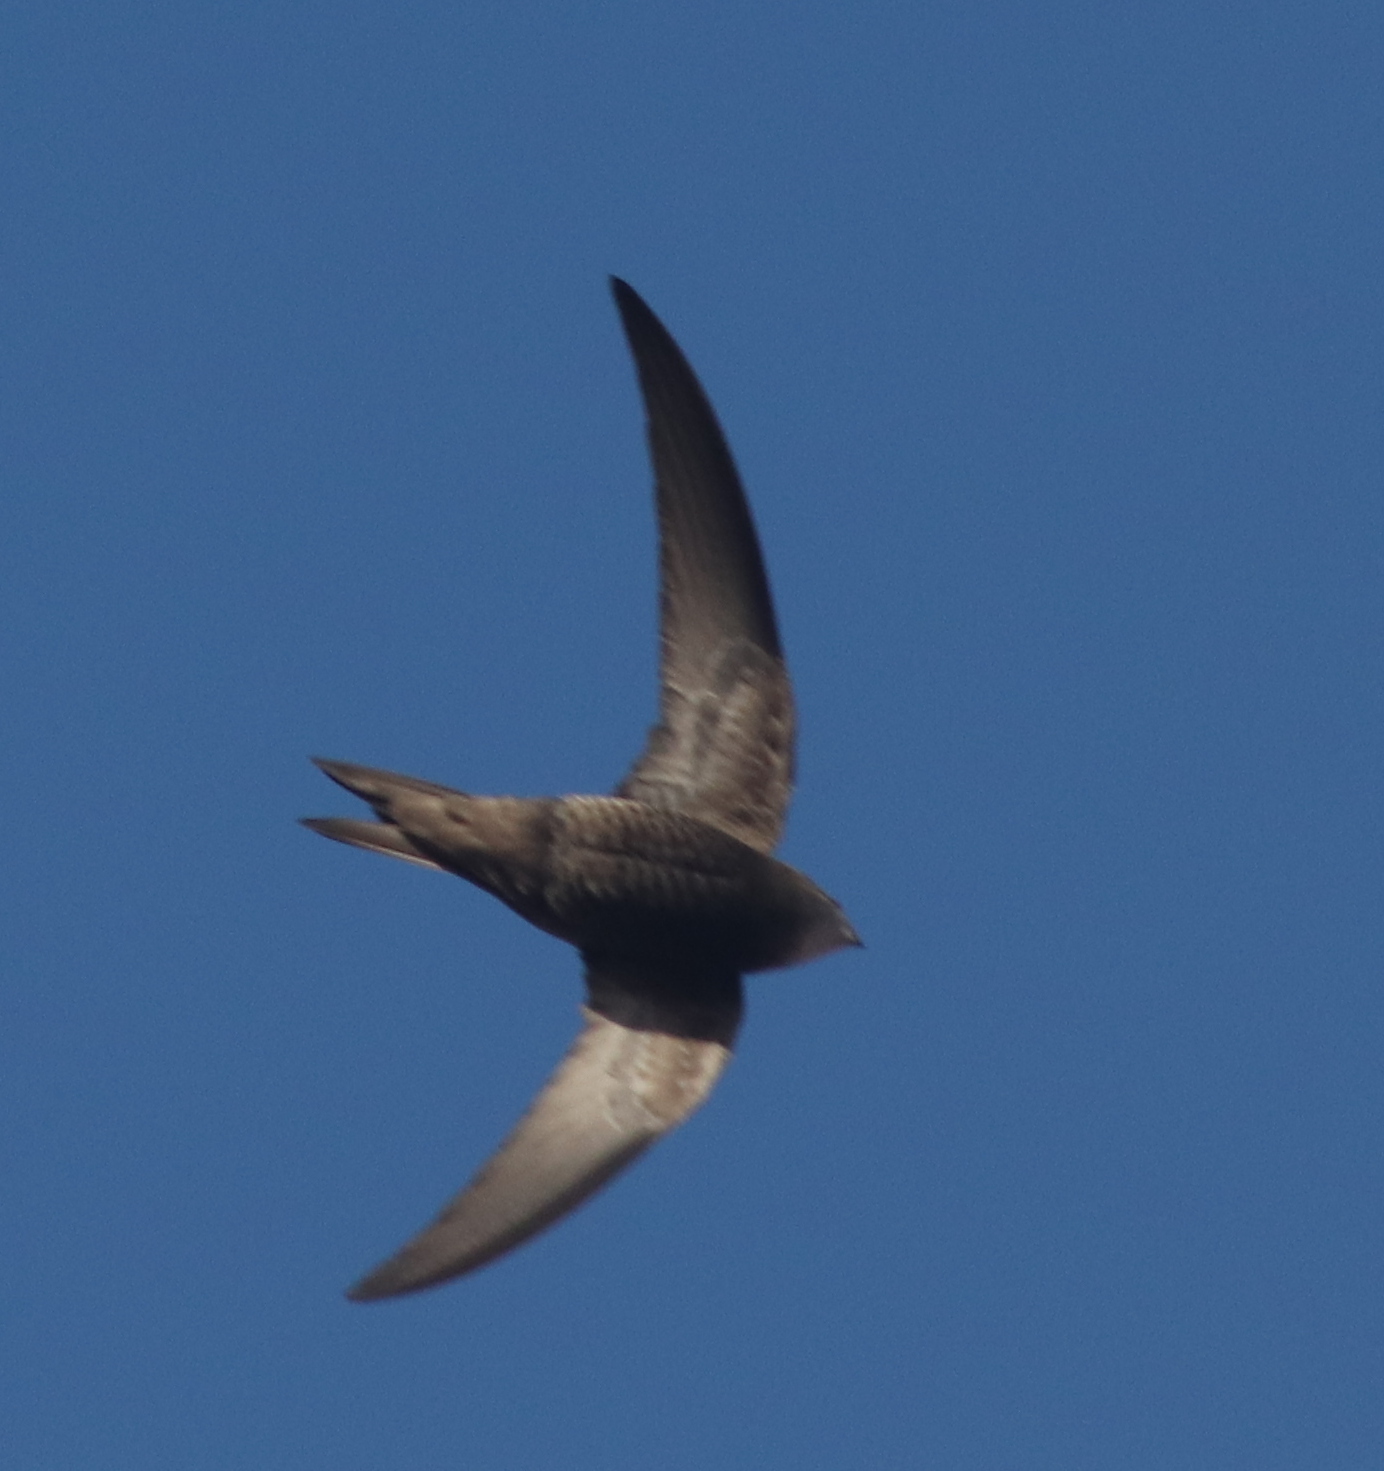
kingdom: Animalia
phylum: Chordata
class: Aves
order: Apodiformes
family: Apodidae
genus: Apus
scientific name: Apus unicolor
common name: Plain swift
